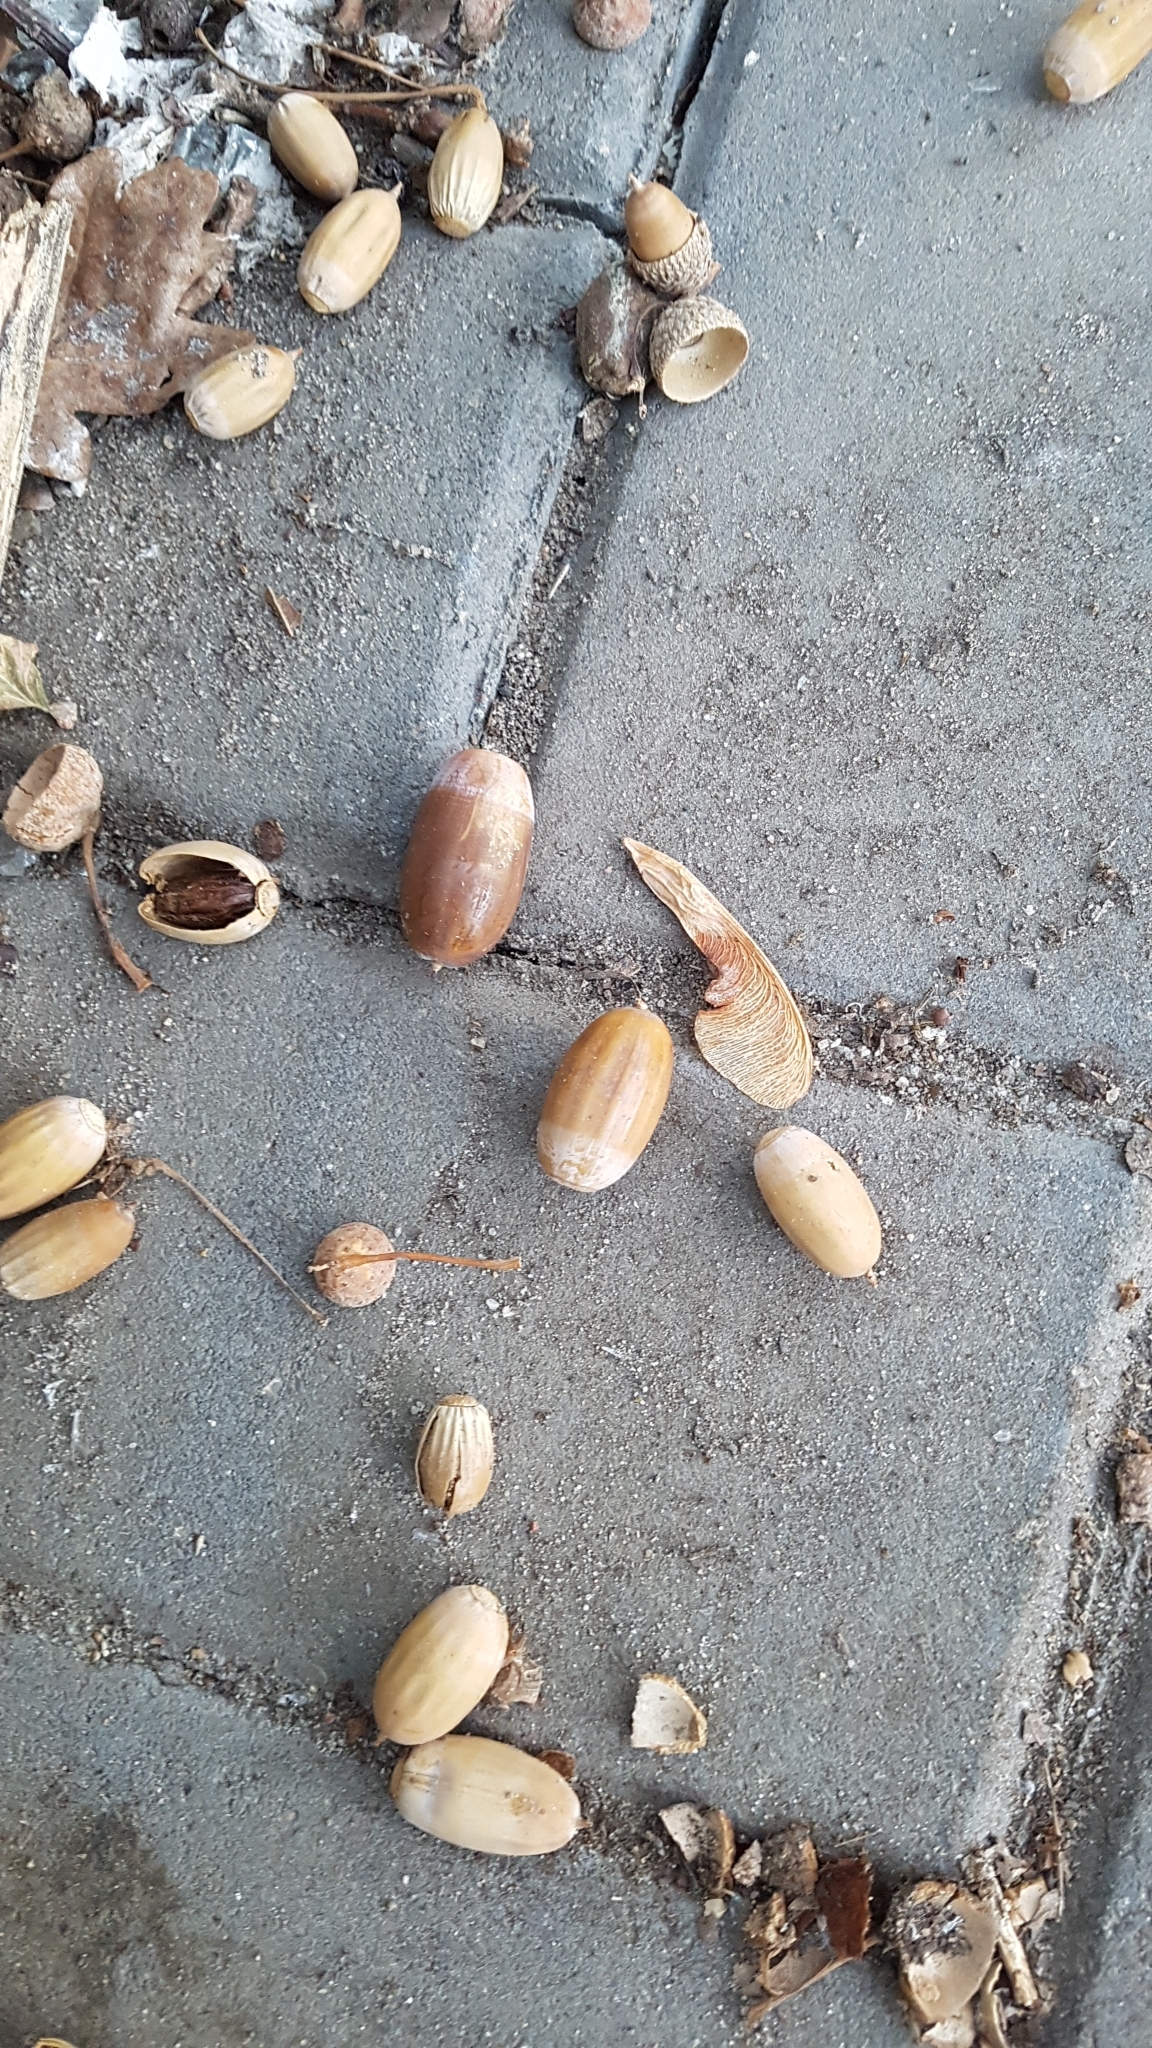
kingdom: Plantae
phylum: Tracheophyta
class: Magnoliopsida
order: Fagales
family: Fagaceae
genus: Quercus
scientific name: Quercus robur
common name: Pedunculate oak
